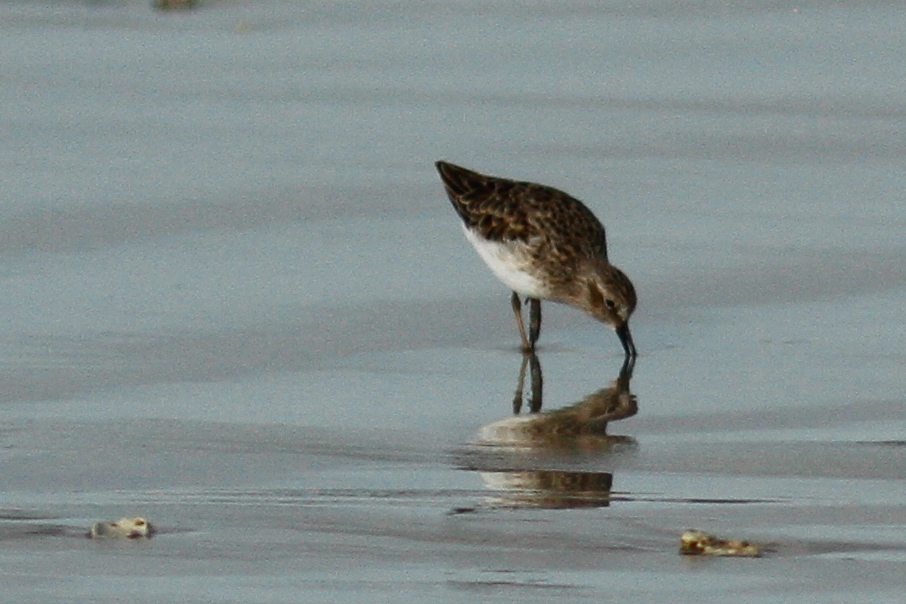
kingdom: Animalia
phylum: Chordata
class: Aves
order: Charadriiformes
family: Scolopacidae
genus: Calidris
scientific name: Calidris minutilla
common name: Least sandpiper
